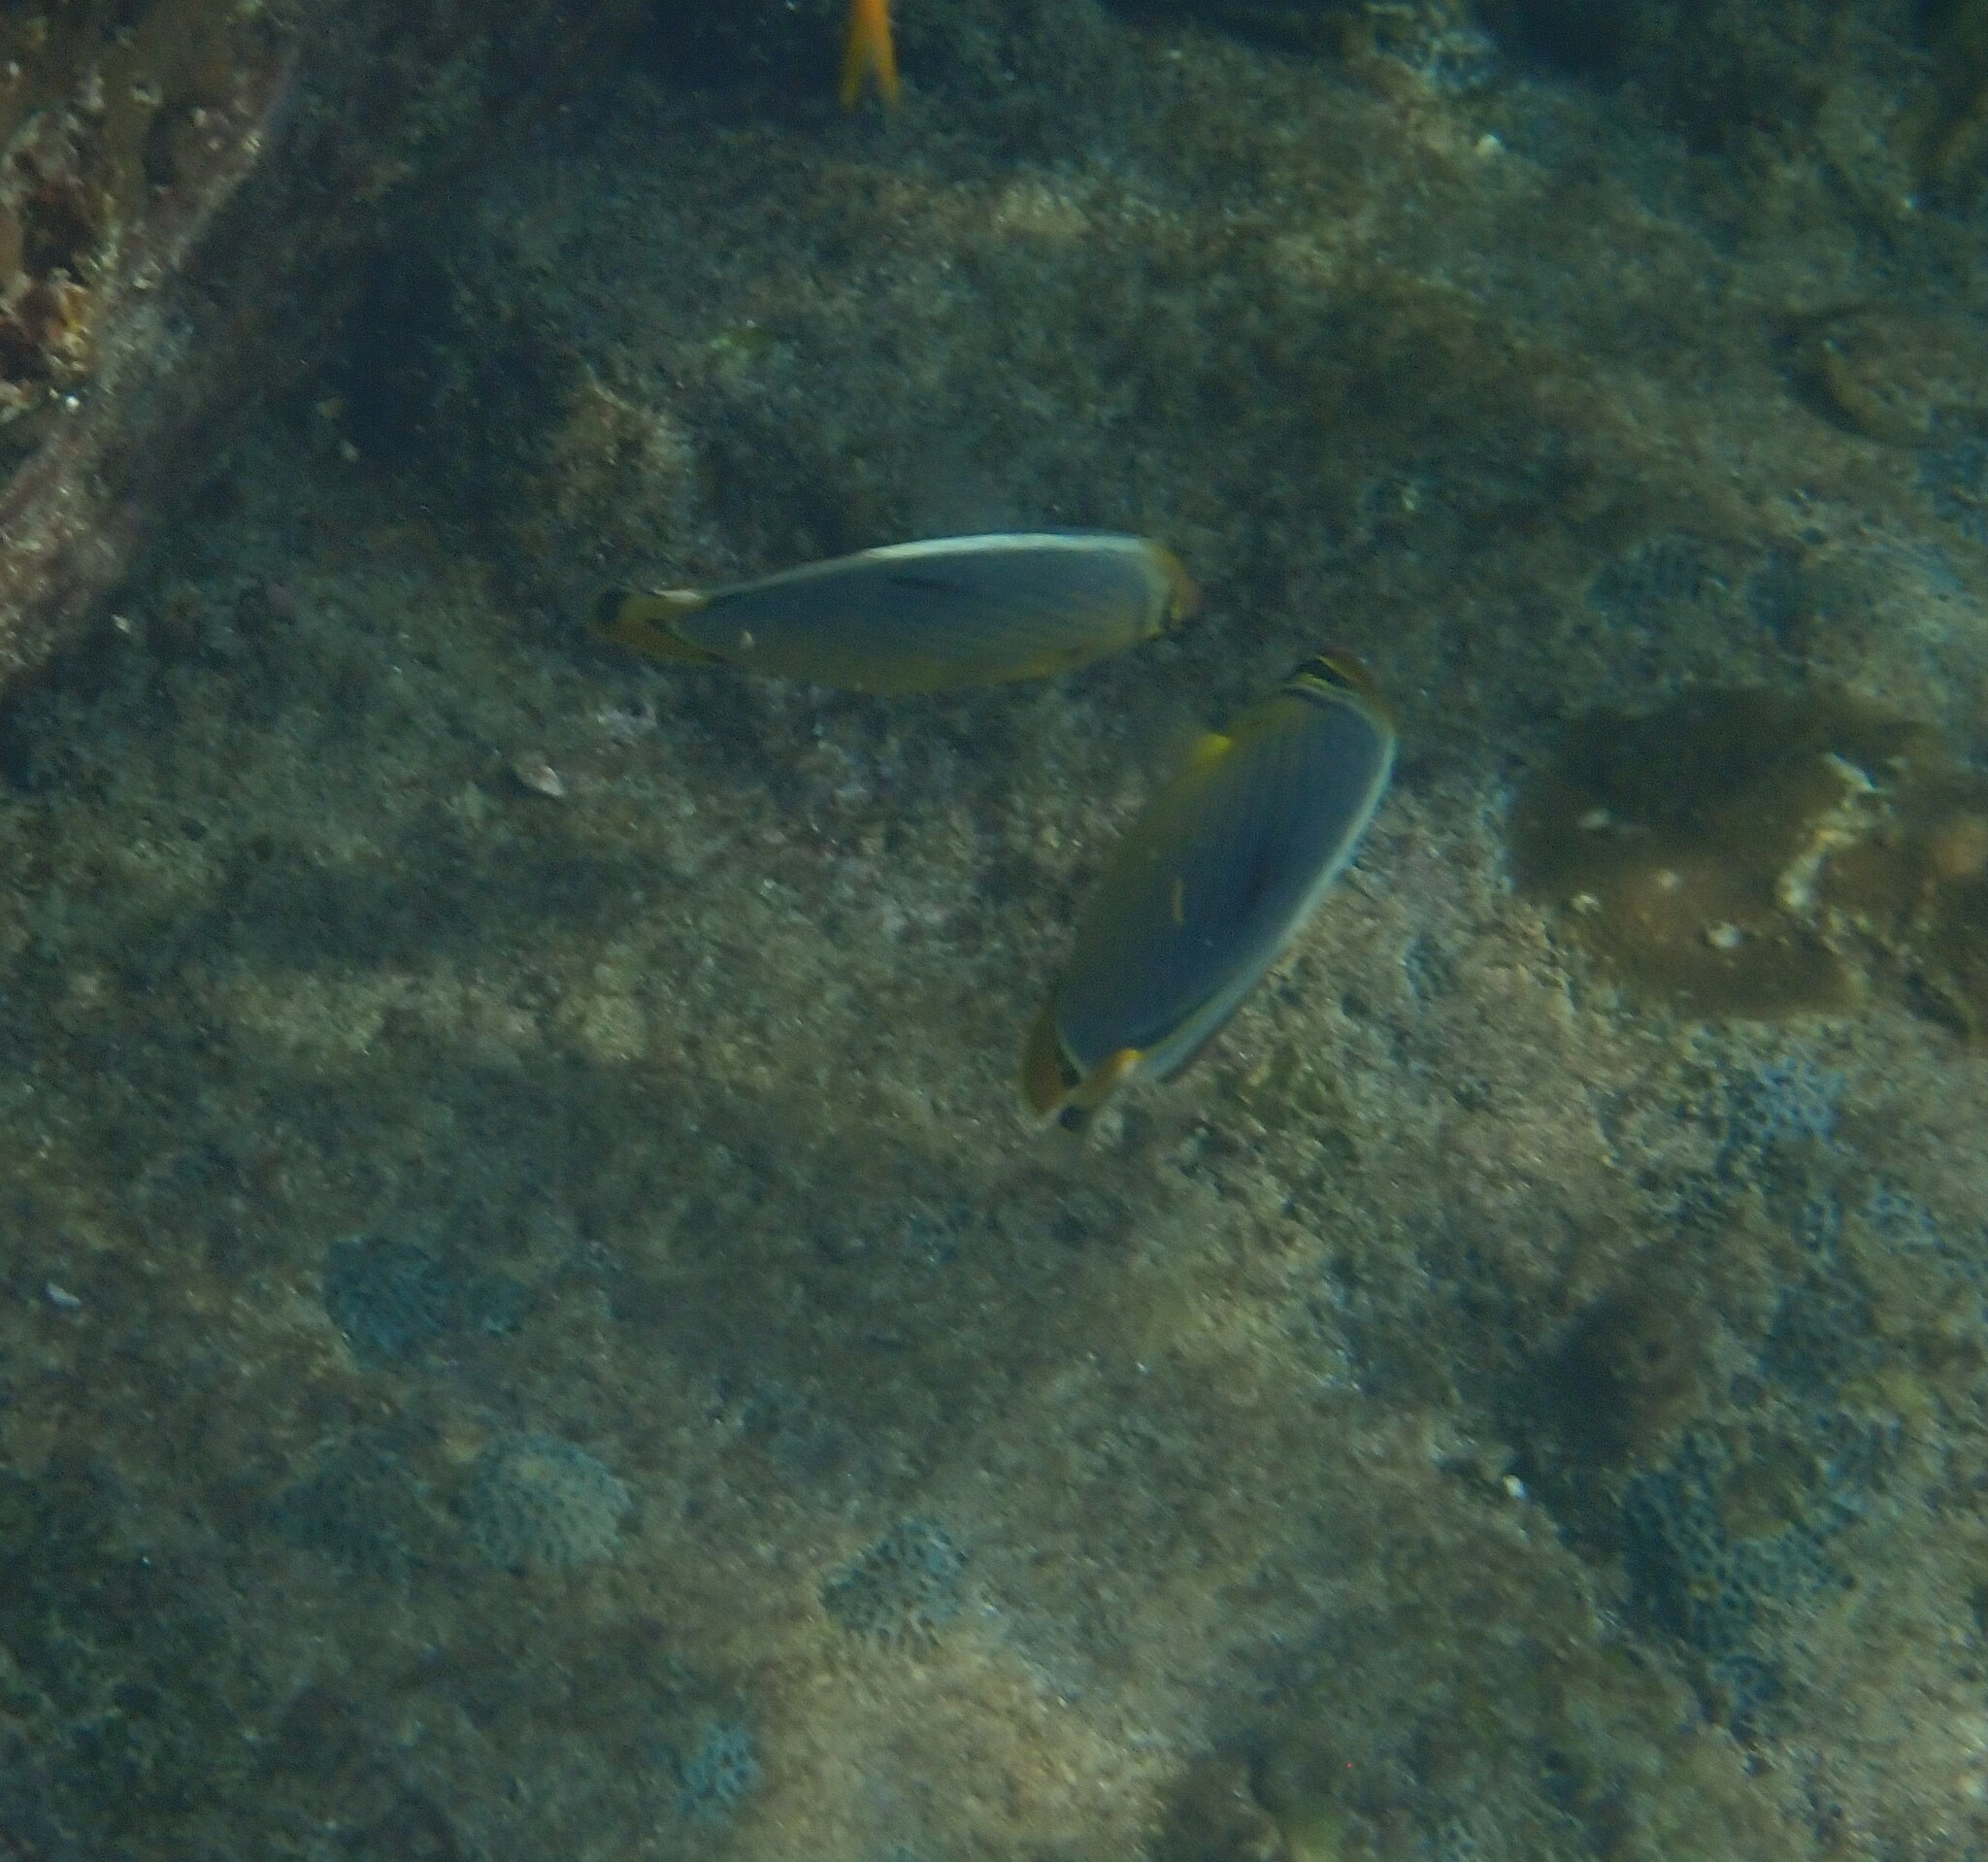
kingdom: Animalia
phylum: Chordata
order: Perciformes
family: Chaetodontidae
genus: Chaetodon
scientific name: Chaetodon trifasciatus
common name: Redfin butterflyfish
